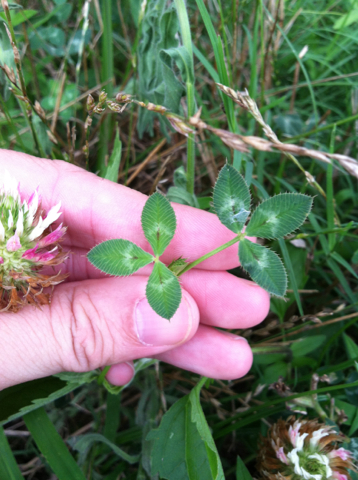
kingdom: Plantae
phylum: Tracheophyta
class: Magnoliopsida
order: Fabales
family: Fabaceae
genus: Trifolium
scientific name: Trifolium vesiculosum
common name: Arrowleaf clover
